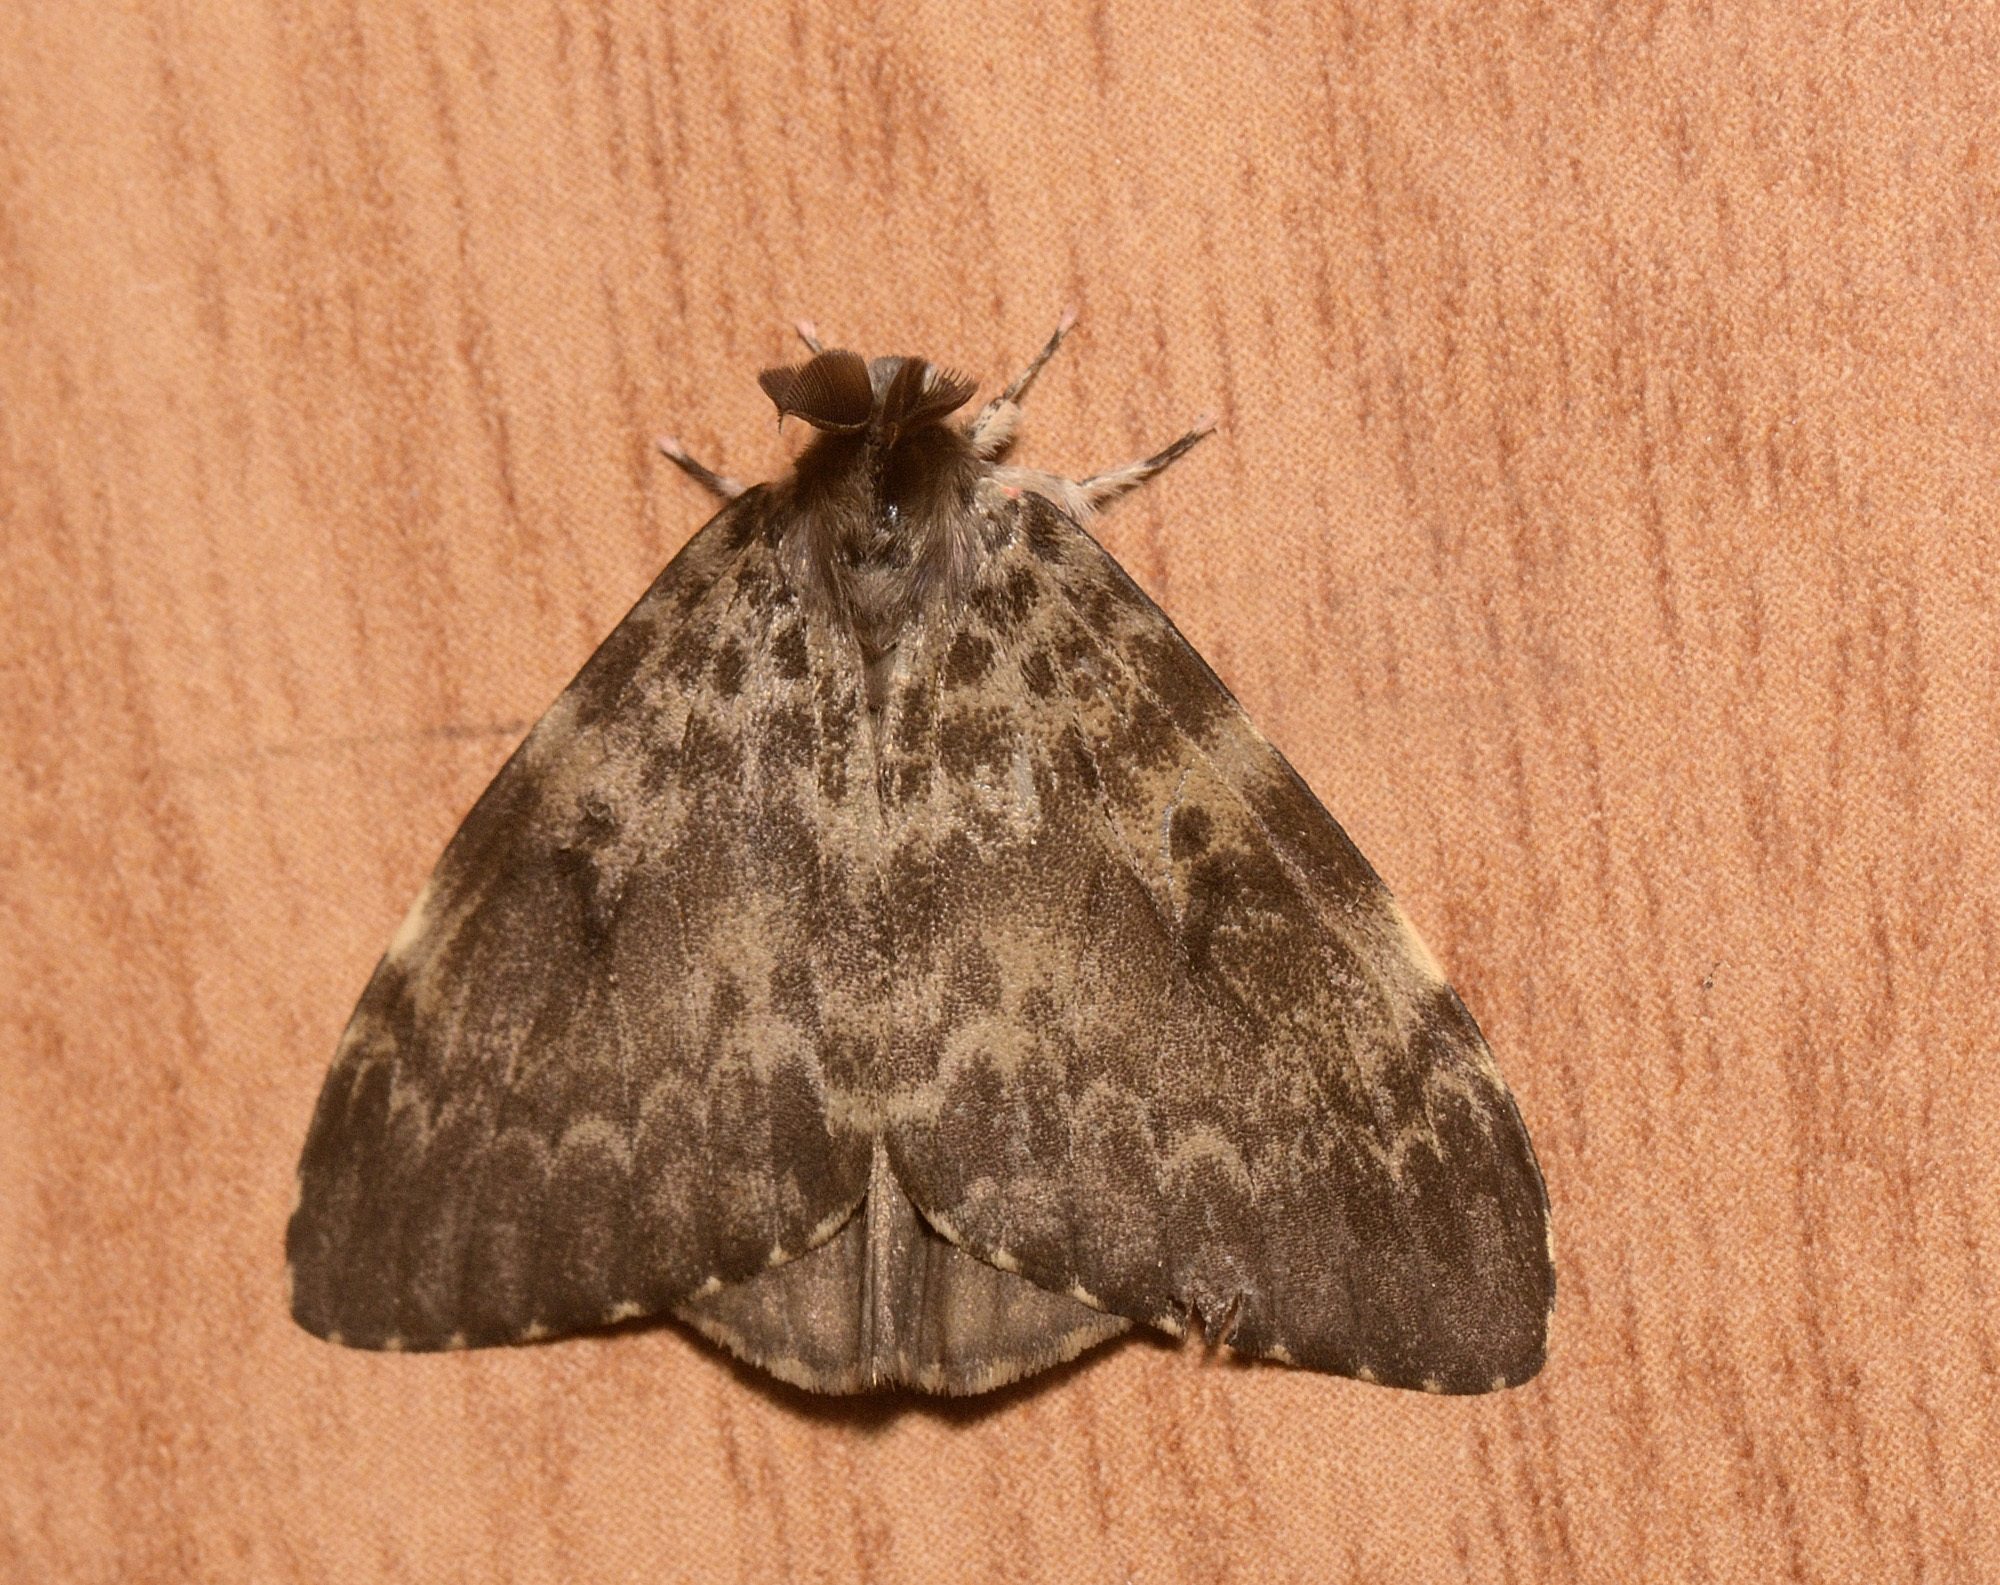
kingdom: Animalia
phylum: Arthropoda
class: Insecta
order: Lepidoptera
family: Erebidae
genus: Lymantria
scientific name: Lymantria ampla
